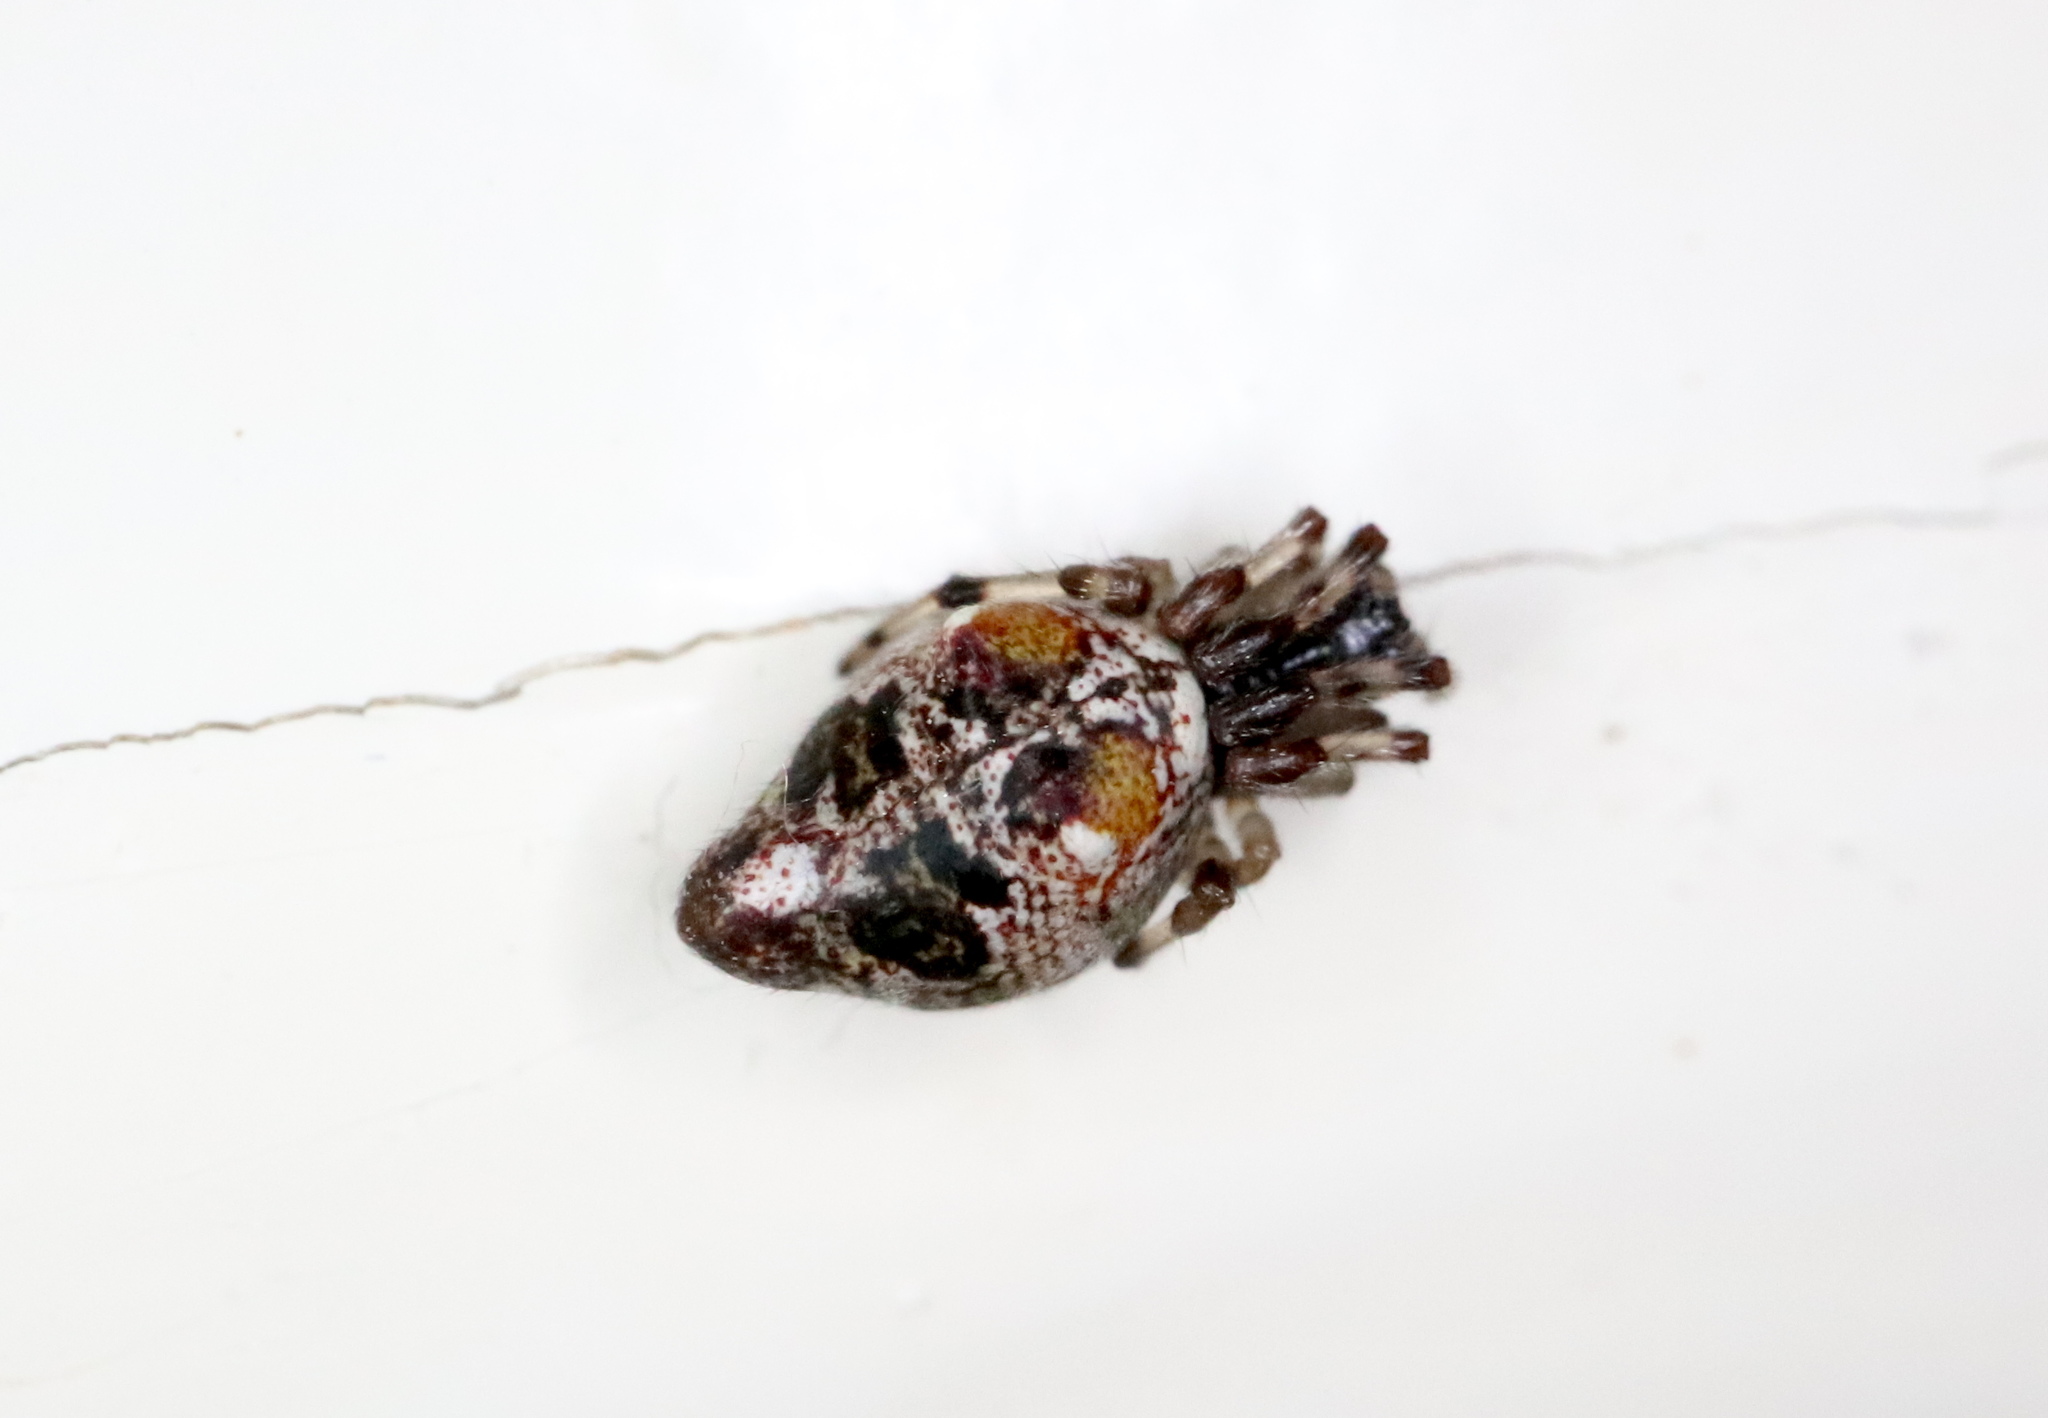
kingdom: Animalia
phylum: Arthropoda
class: Arachnida
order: Araneae
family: Araneidae
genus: Cyclosa
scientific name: Cyclosa turbinata
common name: Orb weavers
